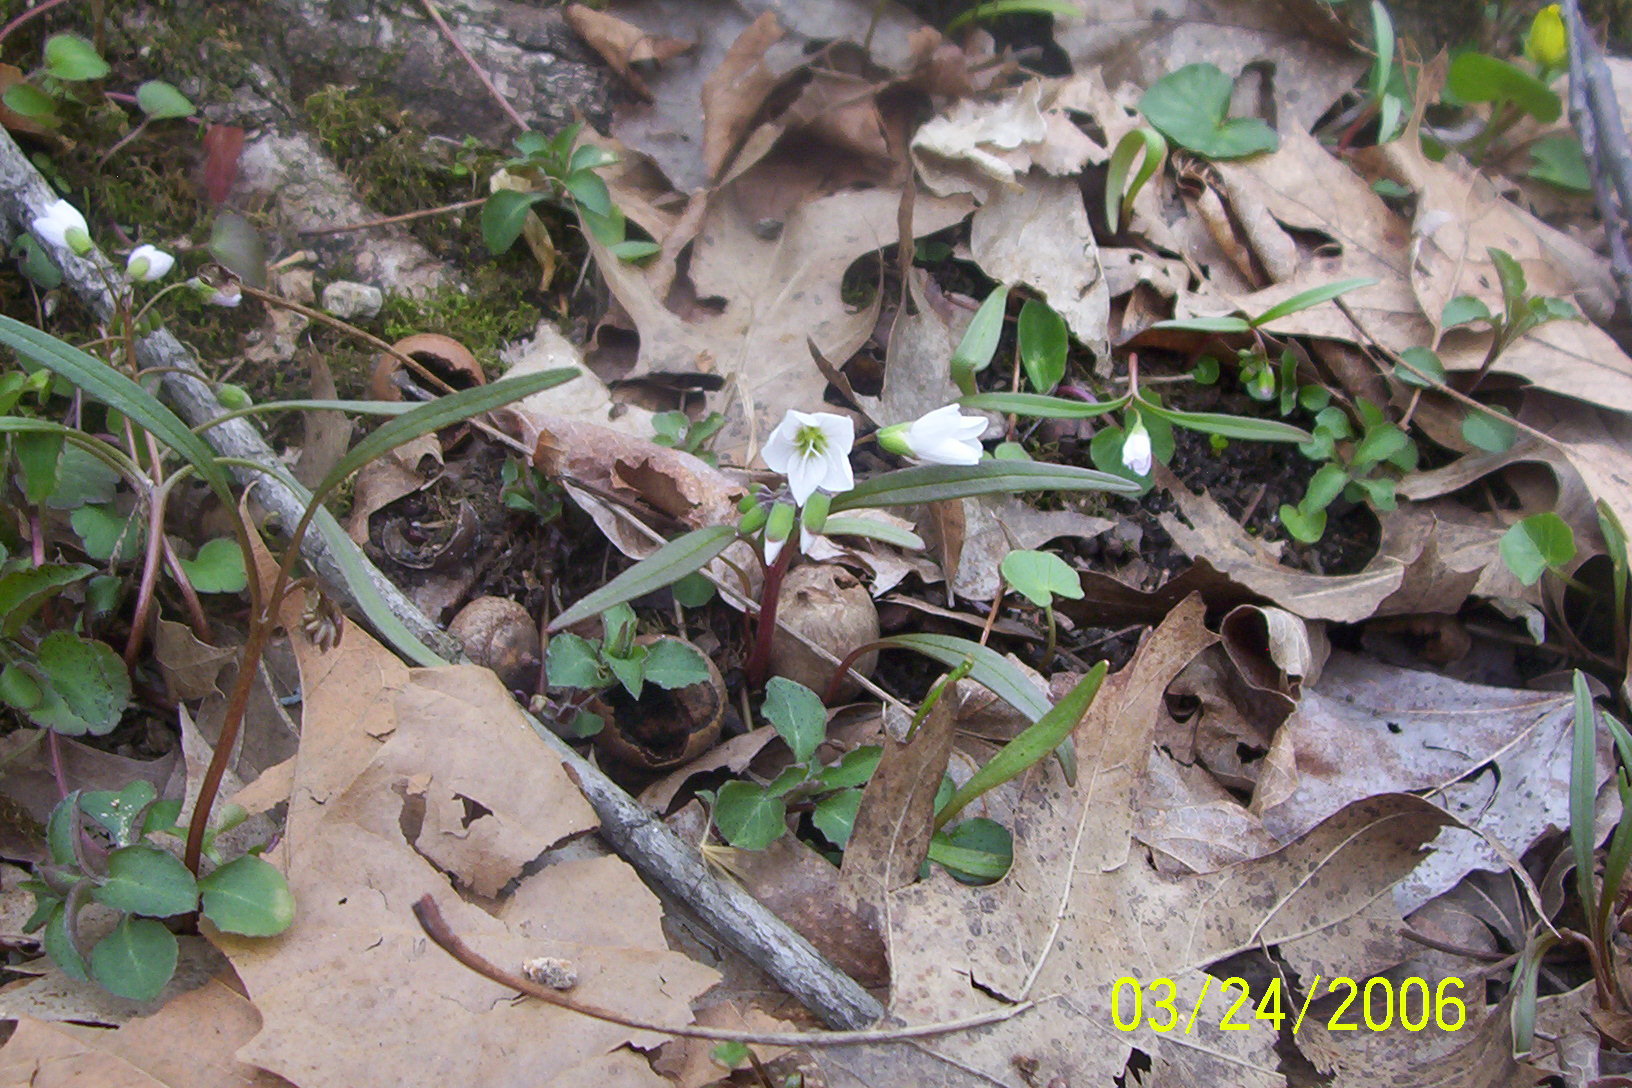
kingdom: Plantae
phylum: Tracheophyta
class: Magnoliopsida
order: Caryophyllales
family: Montiaceae
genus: Claytonia
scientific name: Claytonia virginica
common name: Virginia springbeauty
